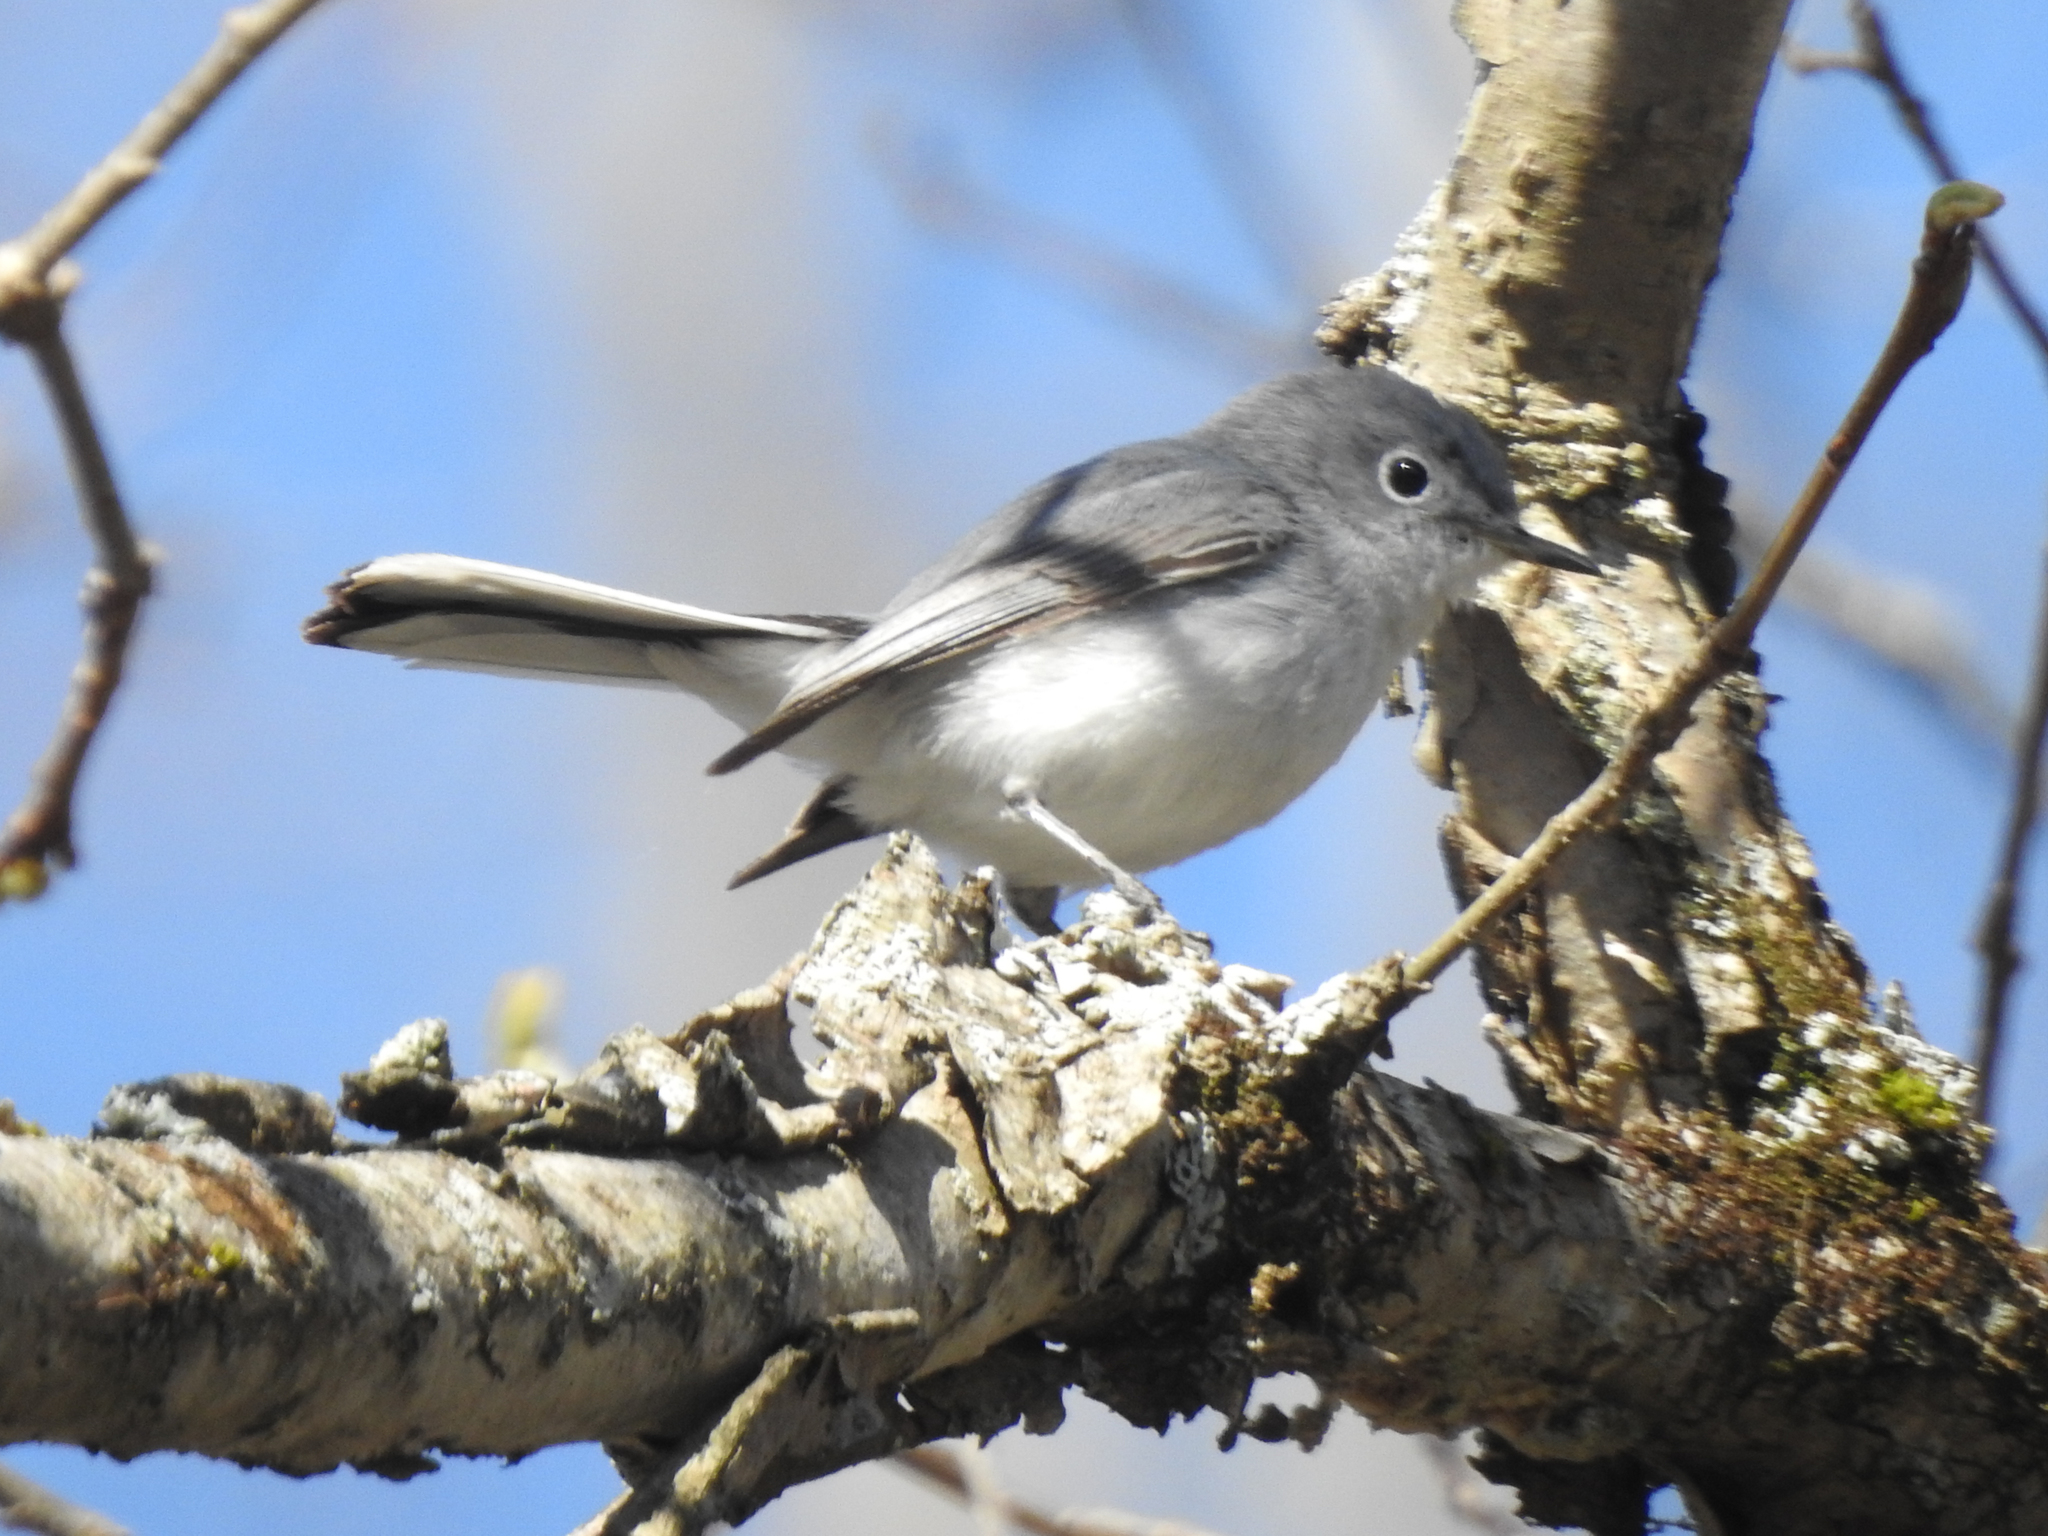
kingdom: Animalia
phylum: Chordata
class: Aves
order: Passeriformes
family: Polioptilidae
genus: Polioptila
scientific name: Polioptila caerulea
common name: Blue-gray gnatcatcher
